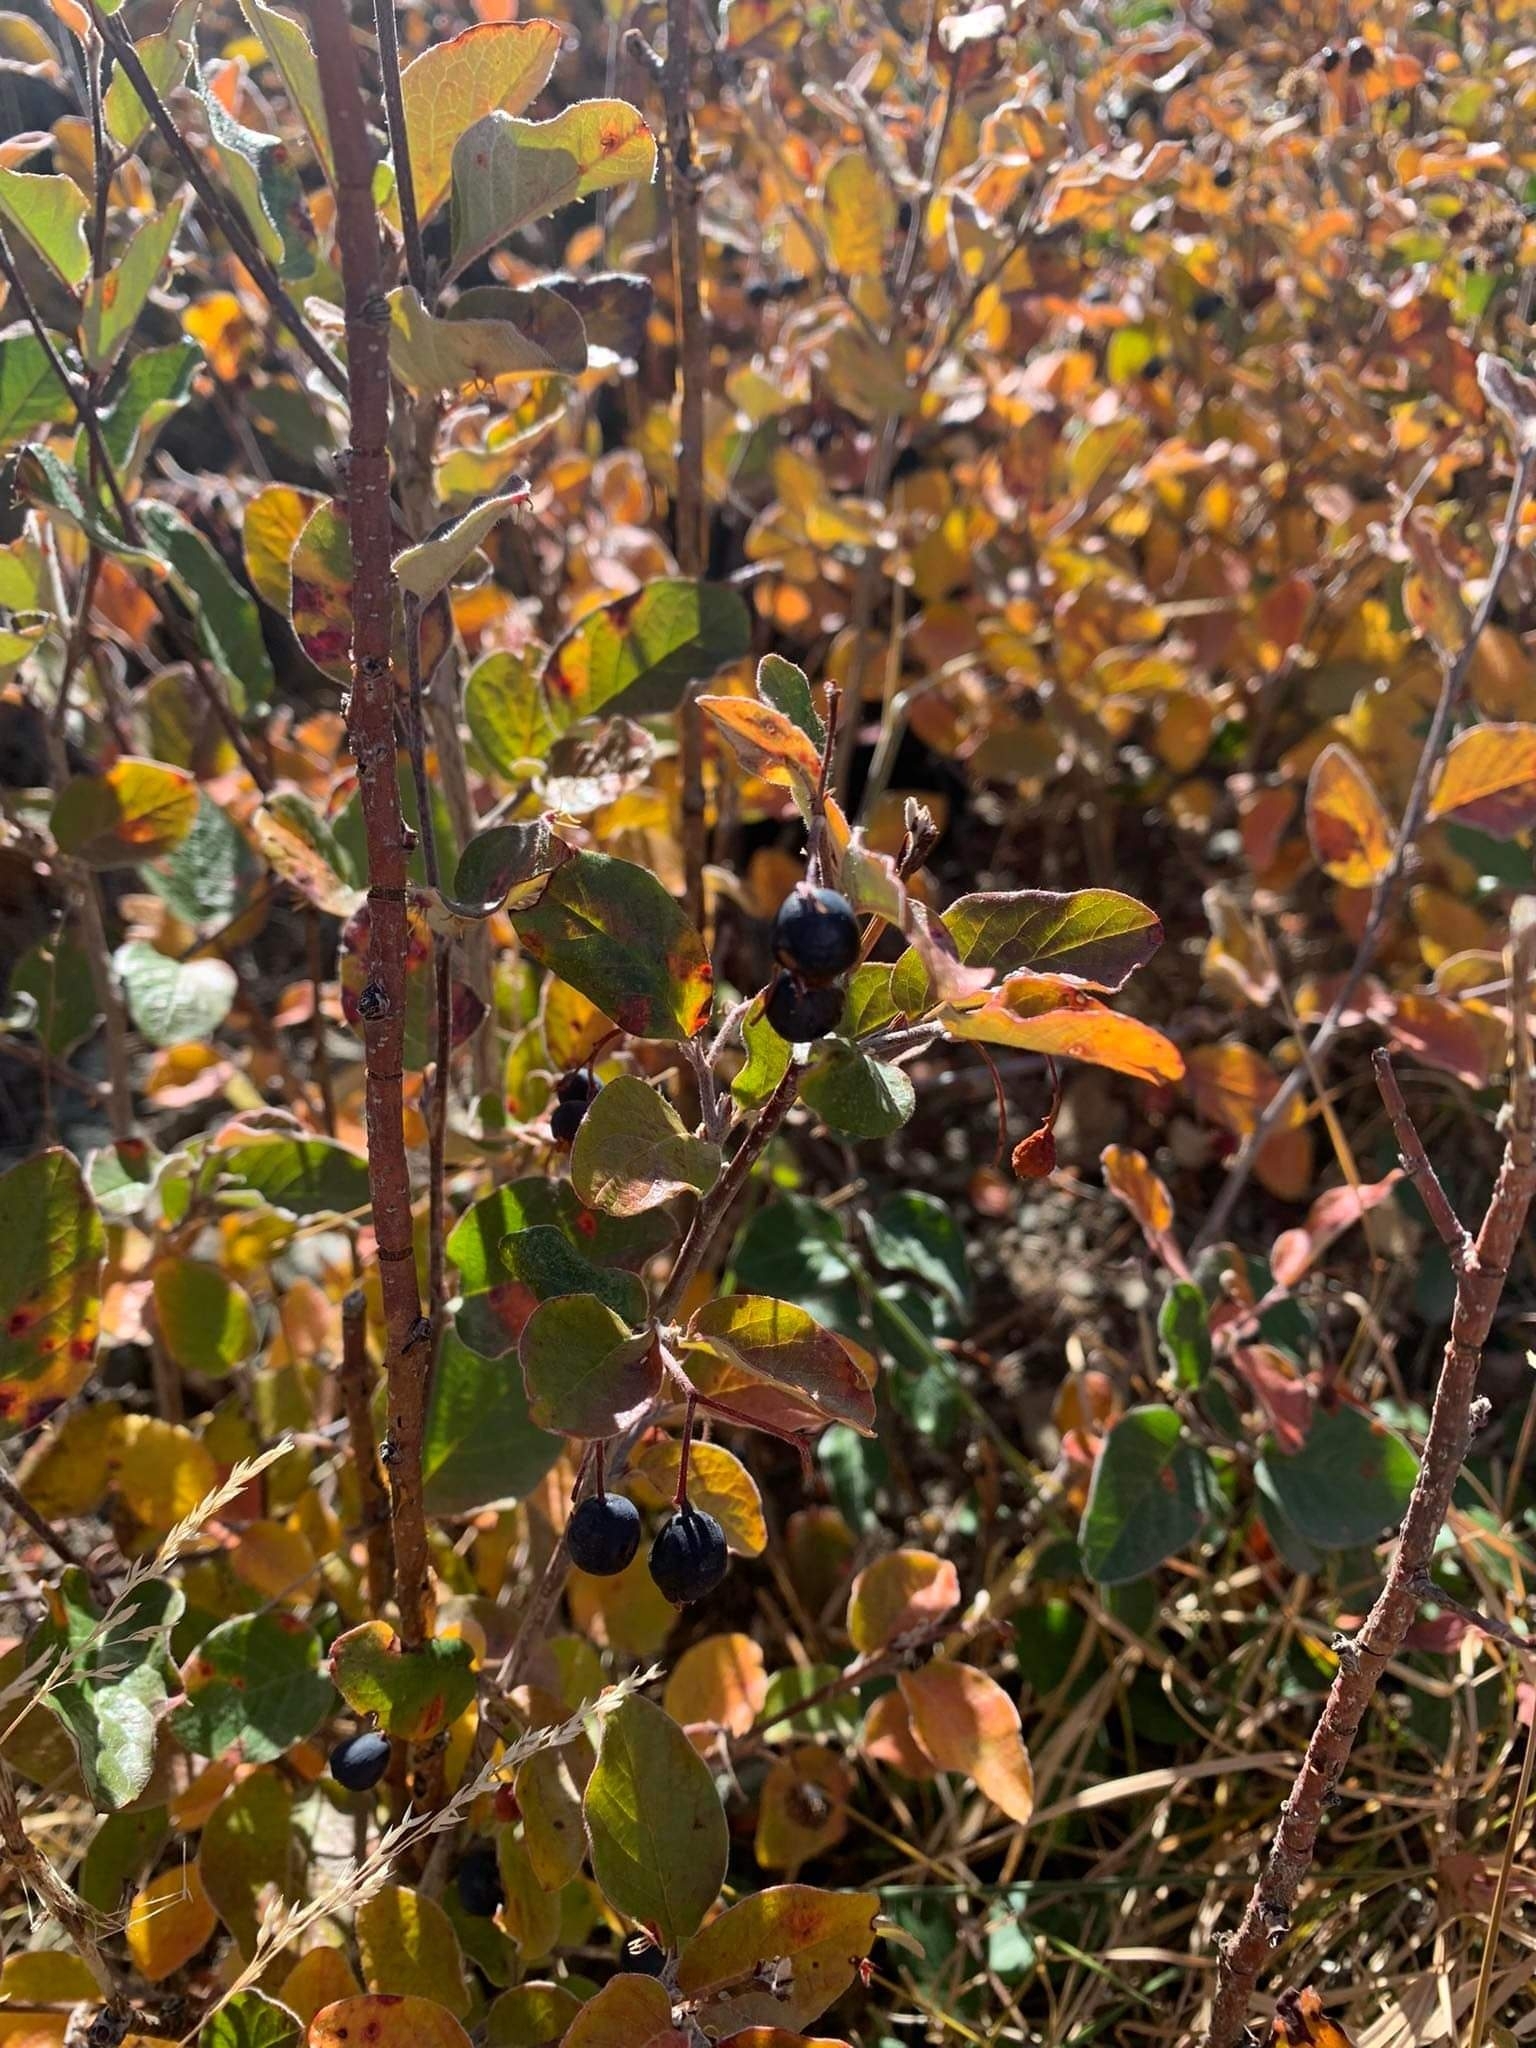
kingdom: Plantae
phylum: Tracheophyta
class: Magnoliopsida
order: Rosales
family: Rosaceae
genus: Cotoneaster
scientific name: Cotoneaster melanocarpus
